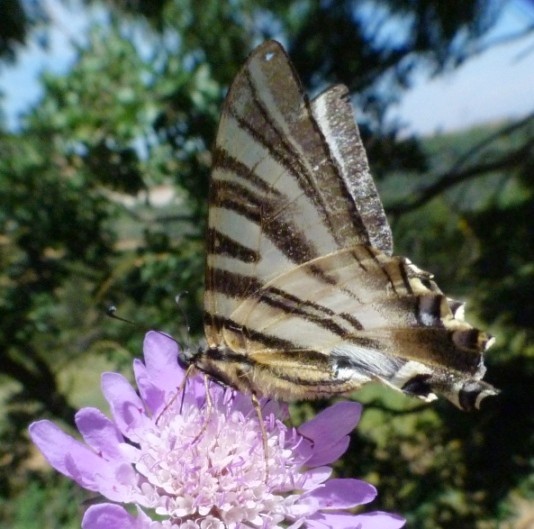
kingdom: Animalia
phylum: Arthropoda
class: Insecta
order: Lepidoptera
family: Papilionidae
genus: Iphiclides
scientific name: Iphiclides feisthamelii
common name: Iberian scarce swallowtail
